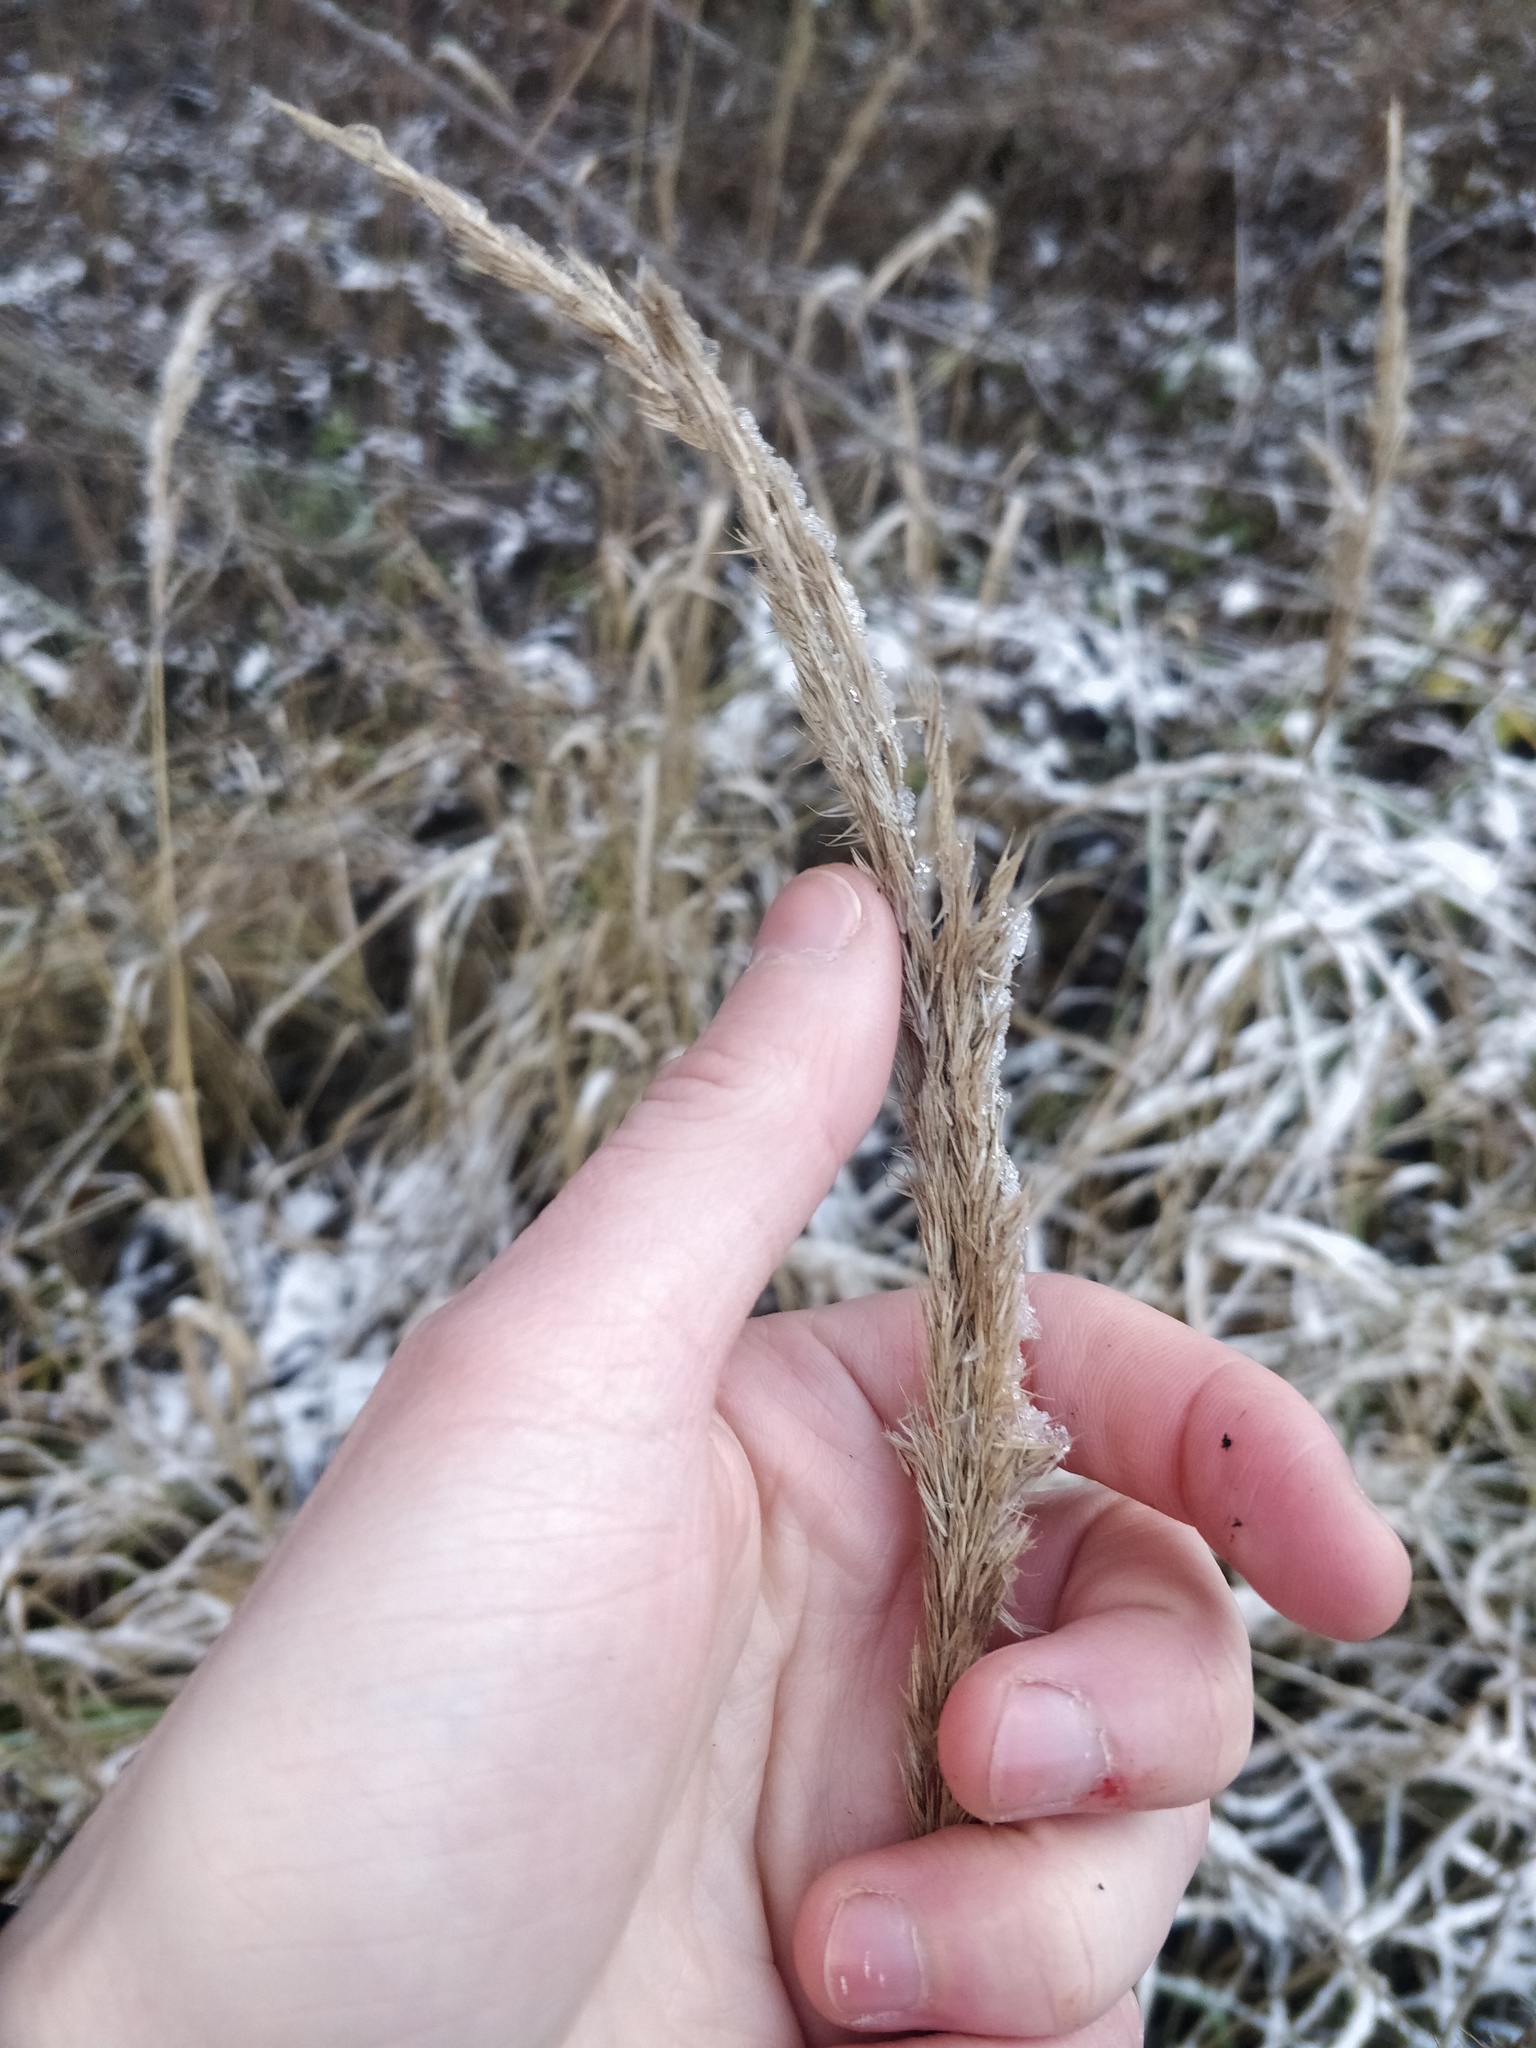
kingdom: Plantae
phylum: Tracheophyta
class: Liliopsida
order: Poales
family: Poaceae
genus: Calamagrostis
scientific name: Calamagrostis epigejos
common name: Wood small-reed
